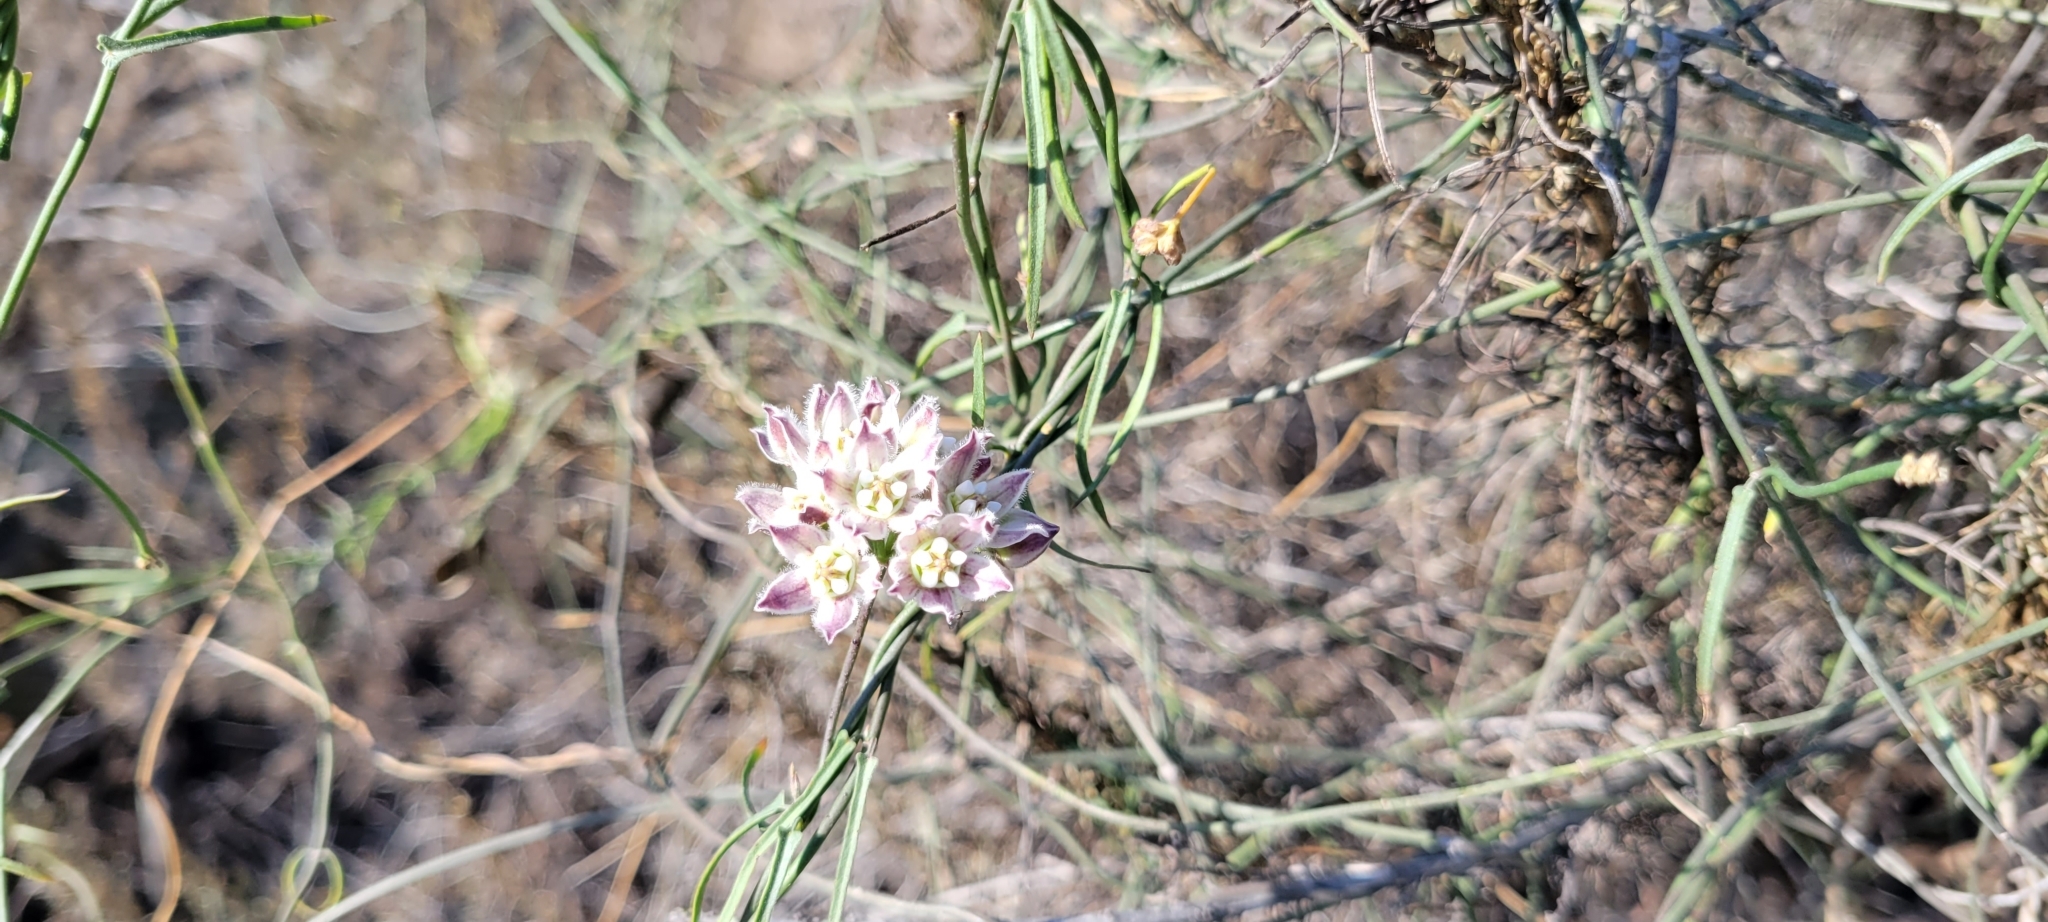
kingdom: Plantae
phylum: Tracheophyta
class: Magnoliopsida
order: Gentianales
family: Apocynaceae
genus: Funastrum
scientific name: Funastrum heterophyllum
